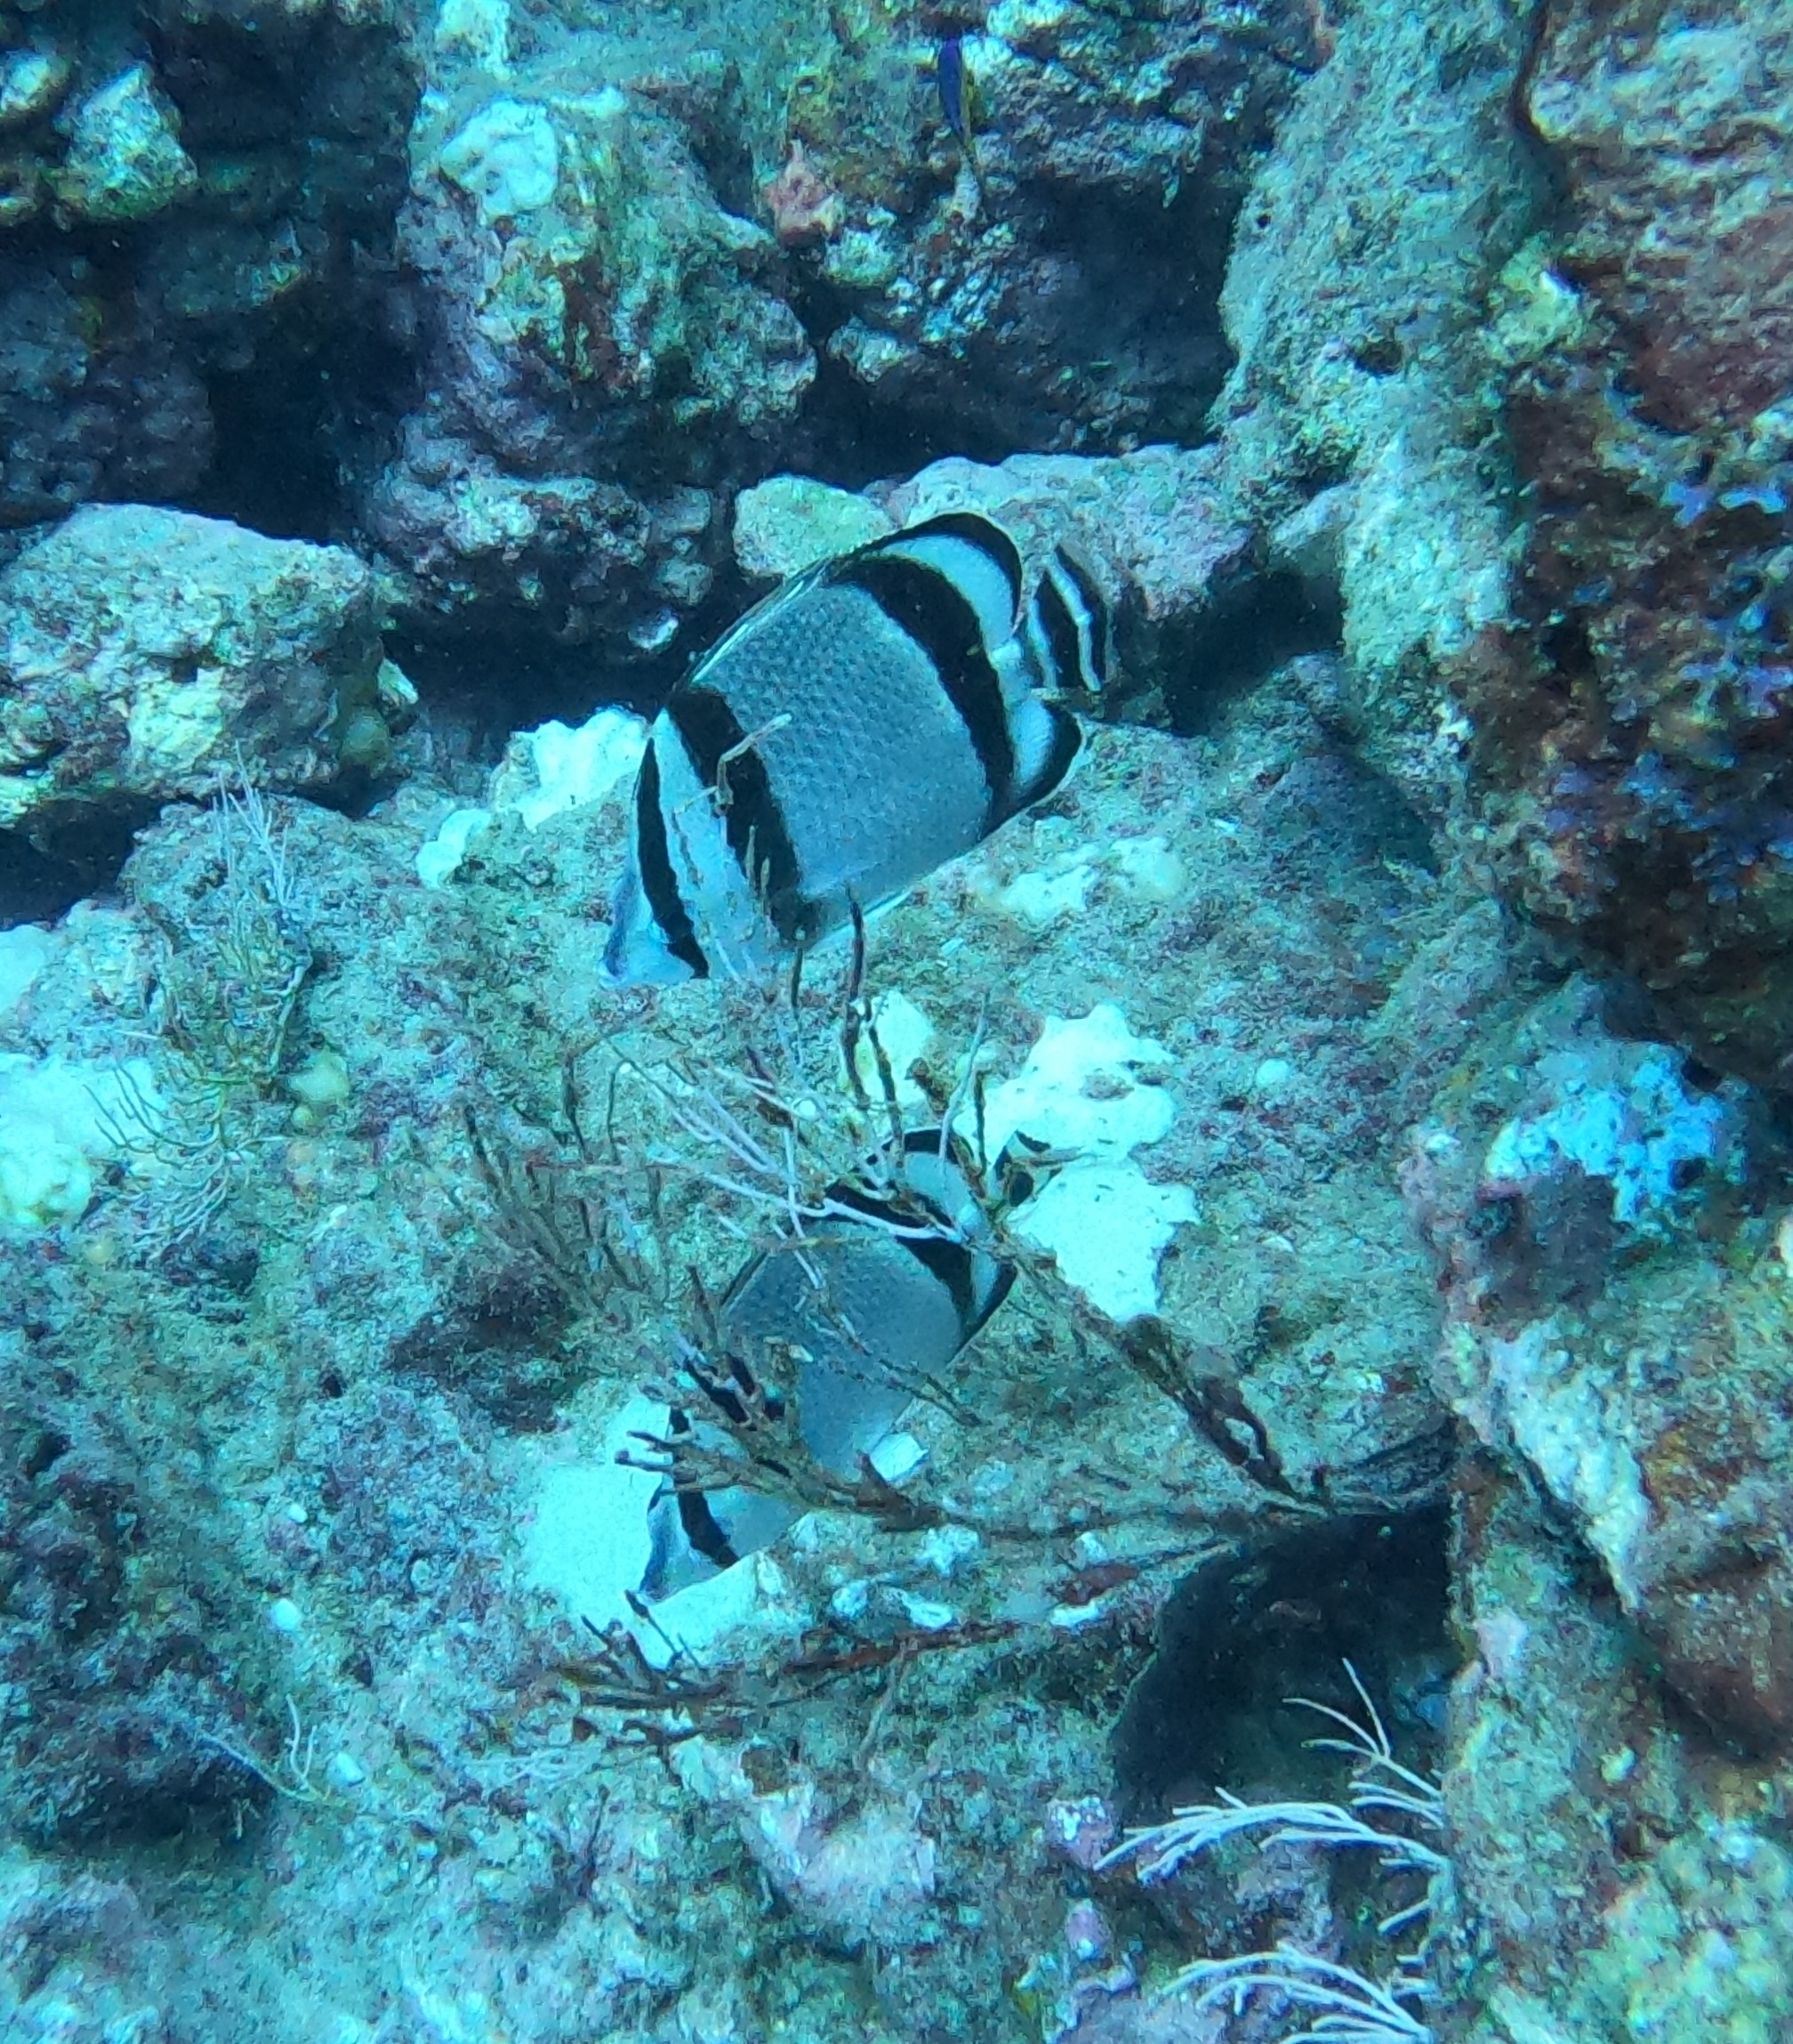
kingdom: Animalia
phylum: Chordata
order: Perciformes
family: Chaetodontidae
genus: Chaetodon
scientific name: Chaetodon humeralis
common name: Threebanded butterflyfish
